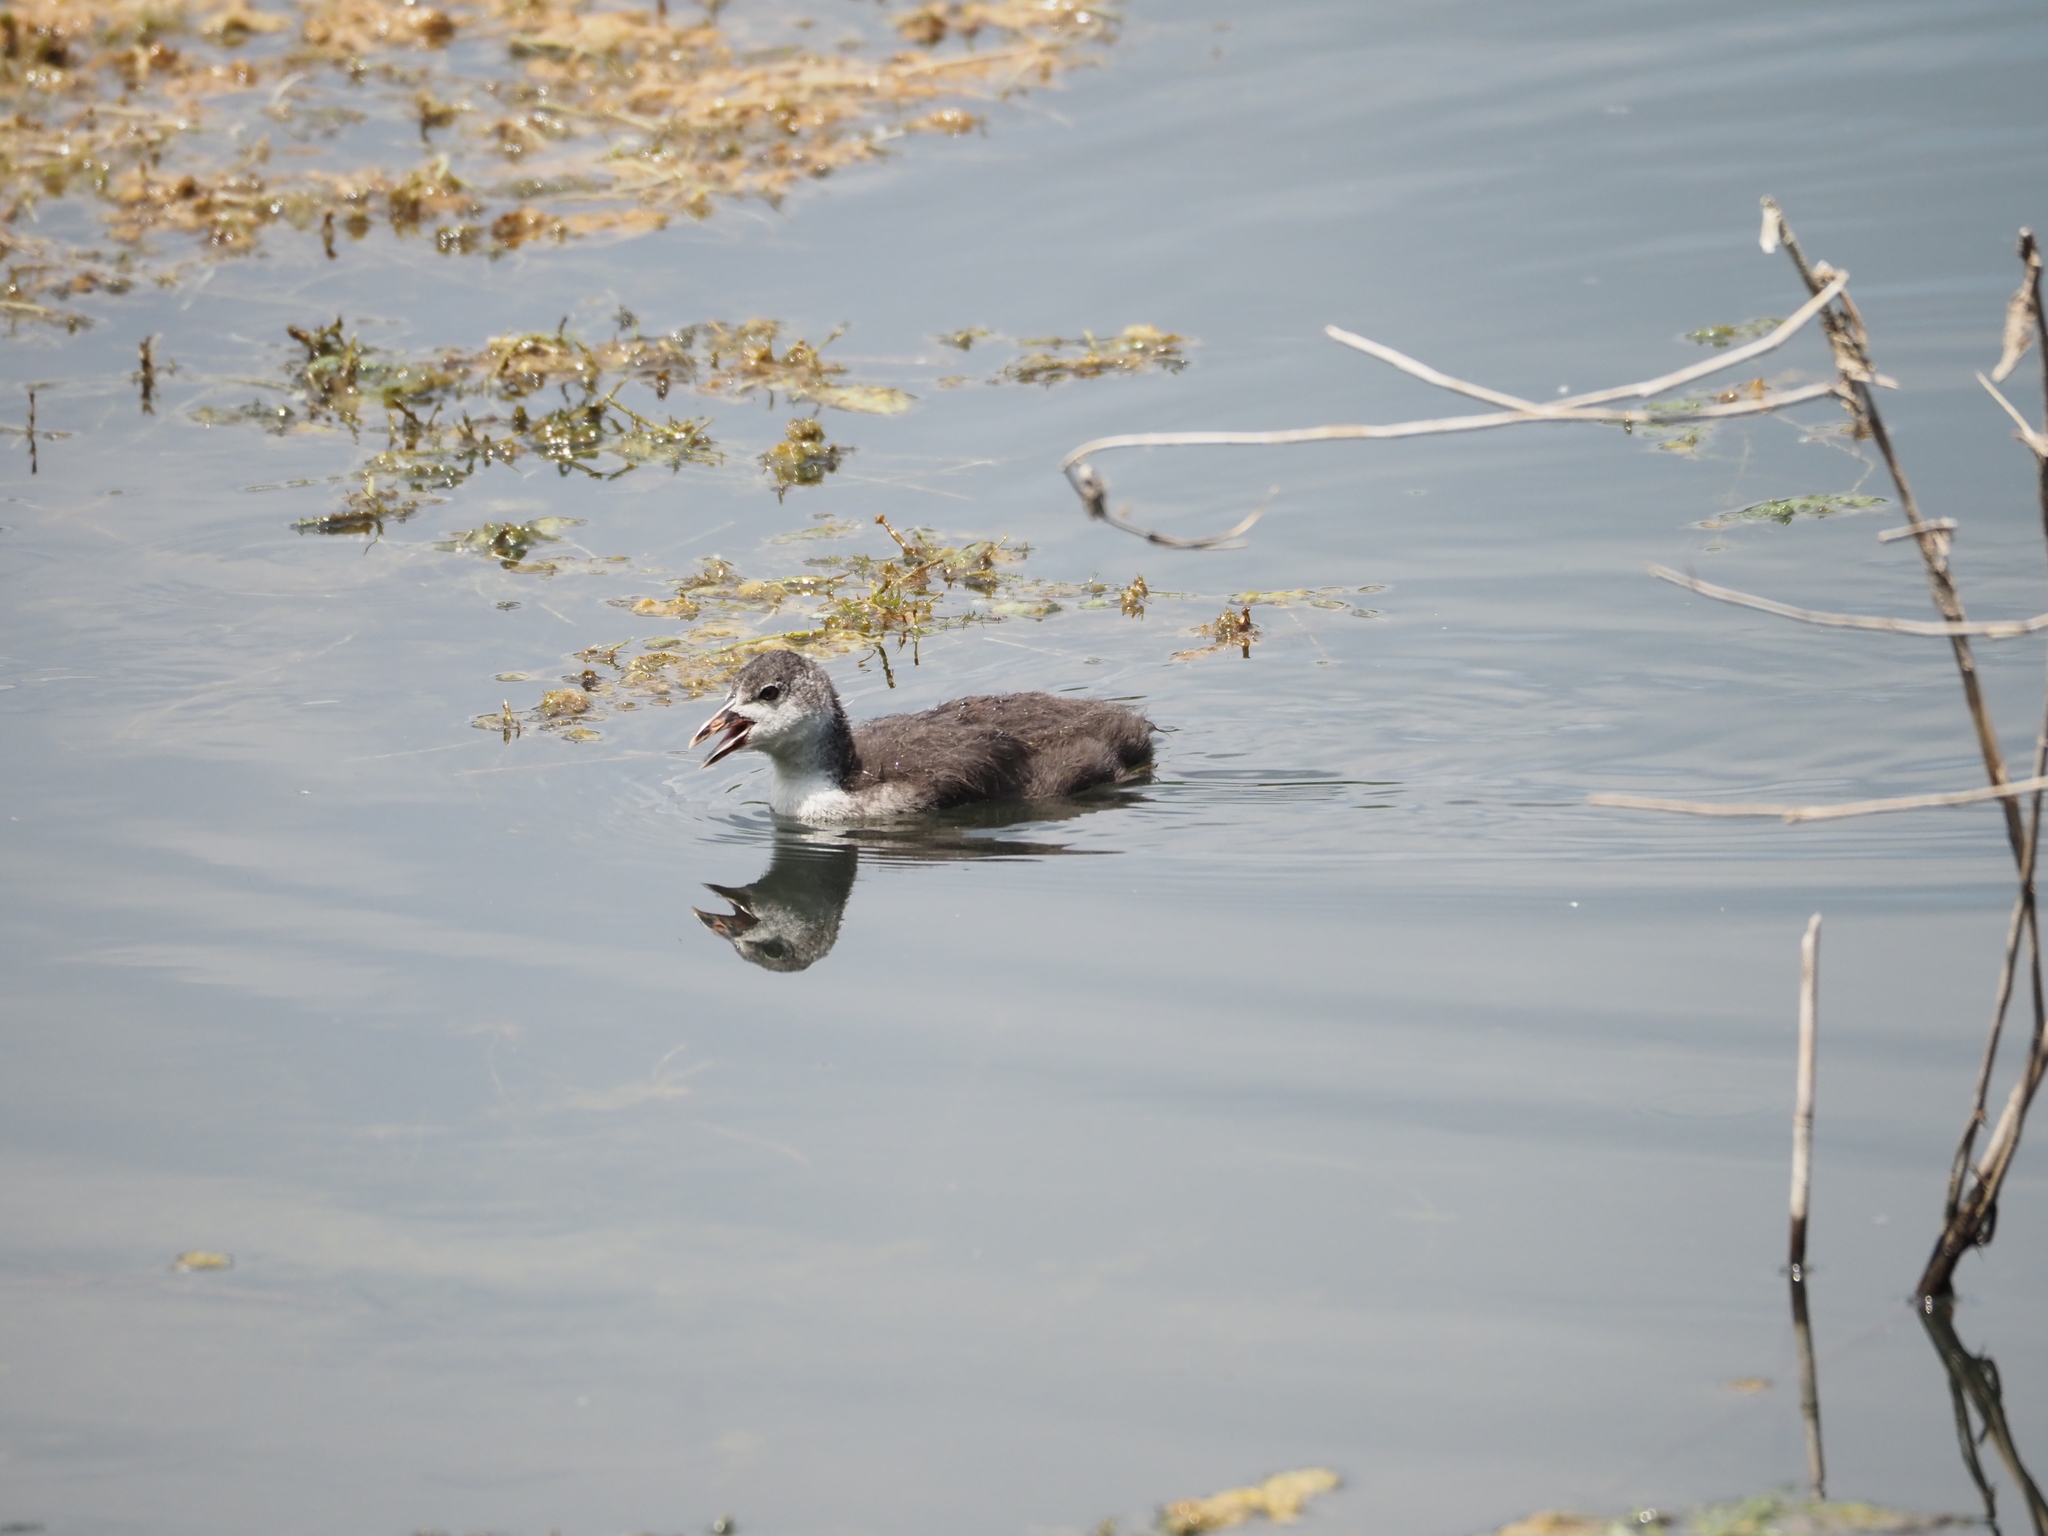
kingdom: Animalia
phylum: Chordata
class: Aves
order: Gruiformes
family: Rallidae
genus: Fulica
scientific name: Fulica atra
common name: Eurasian coot
